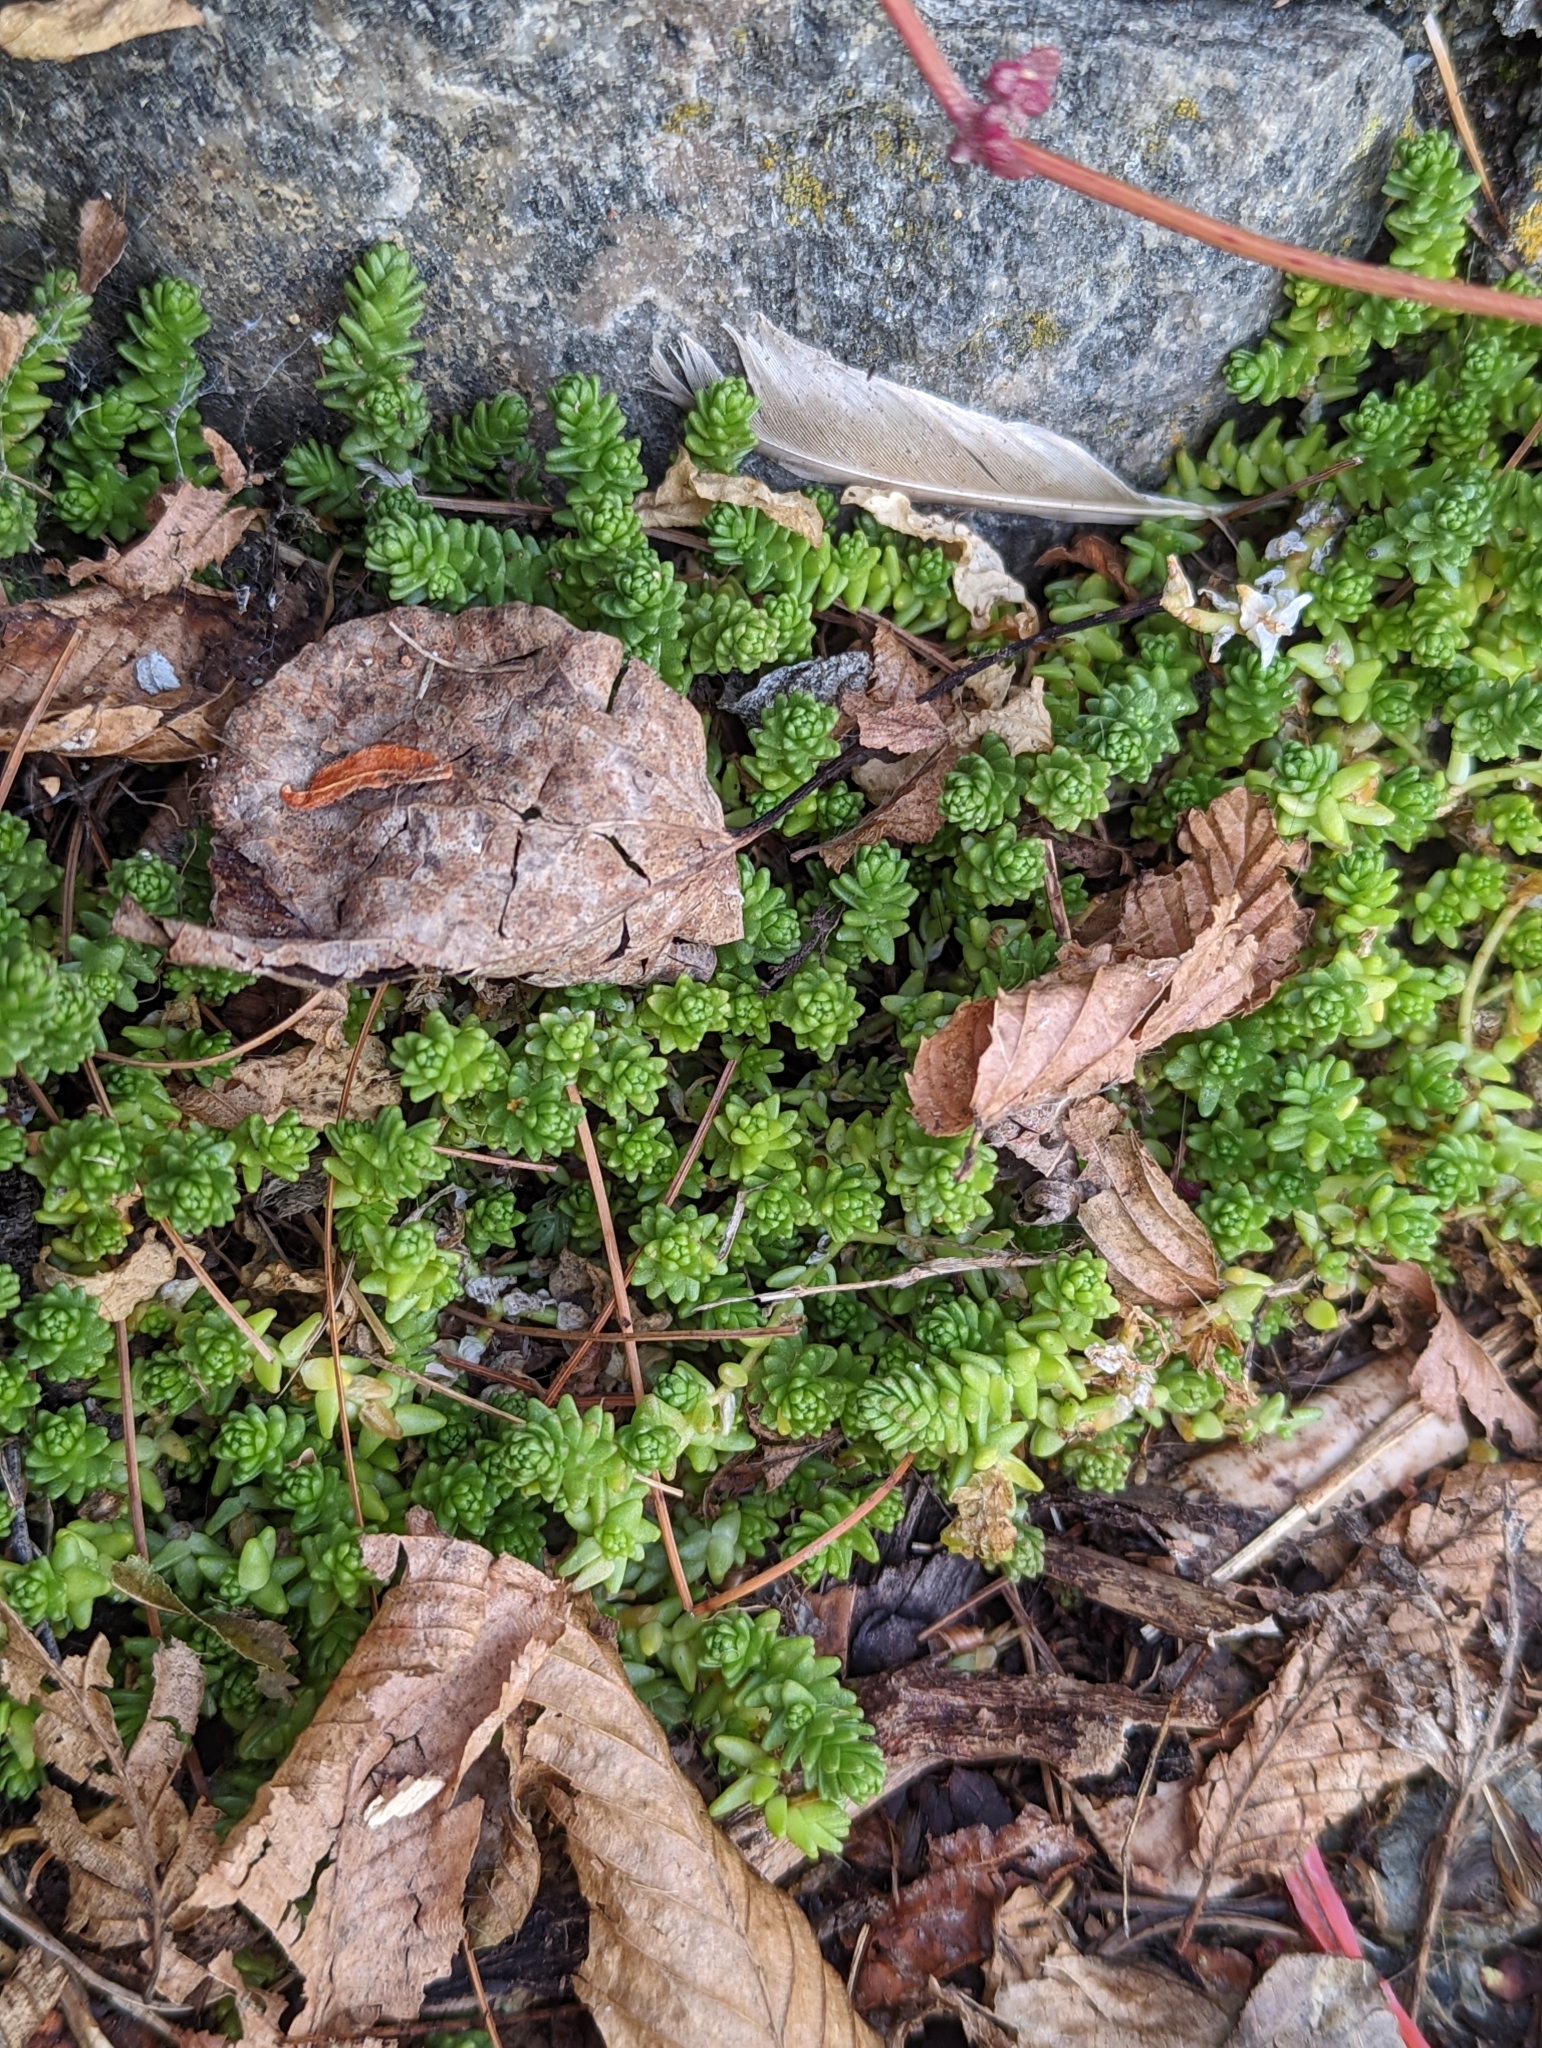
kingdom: Plantae
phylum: Tracheophyta
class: Magnoliopsida
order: Saxifragales
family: Crassulaceae
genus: Sedum
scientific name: Sedum acre
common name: Biting stonecrop
